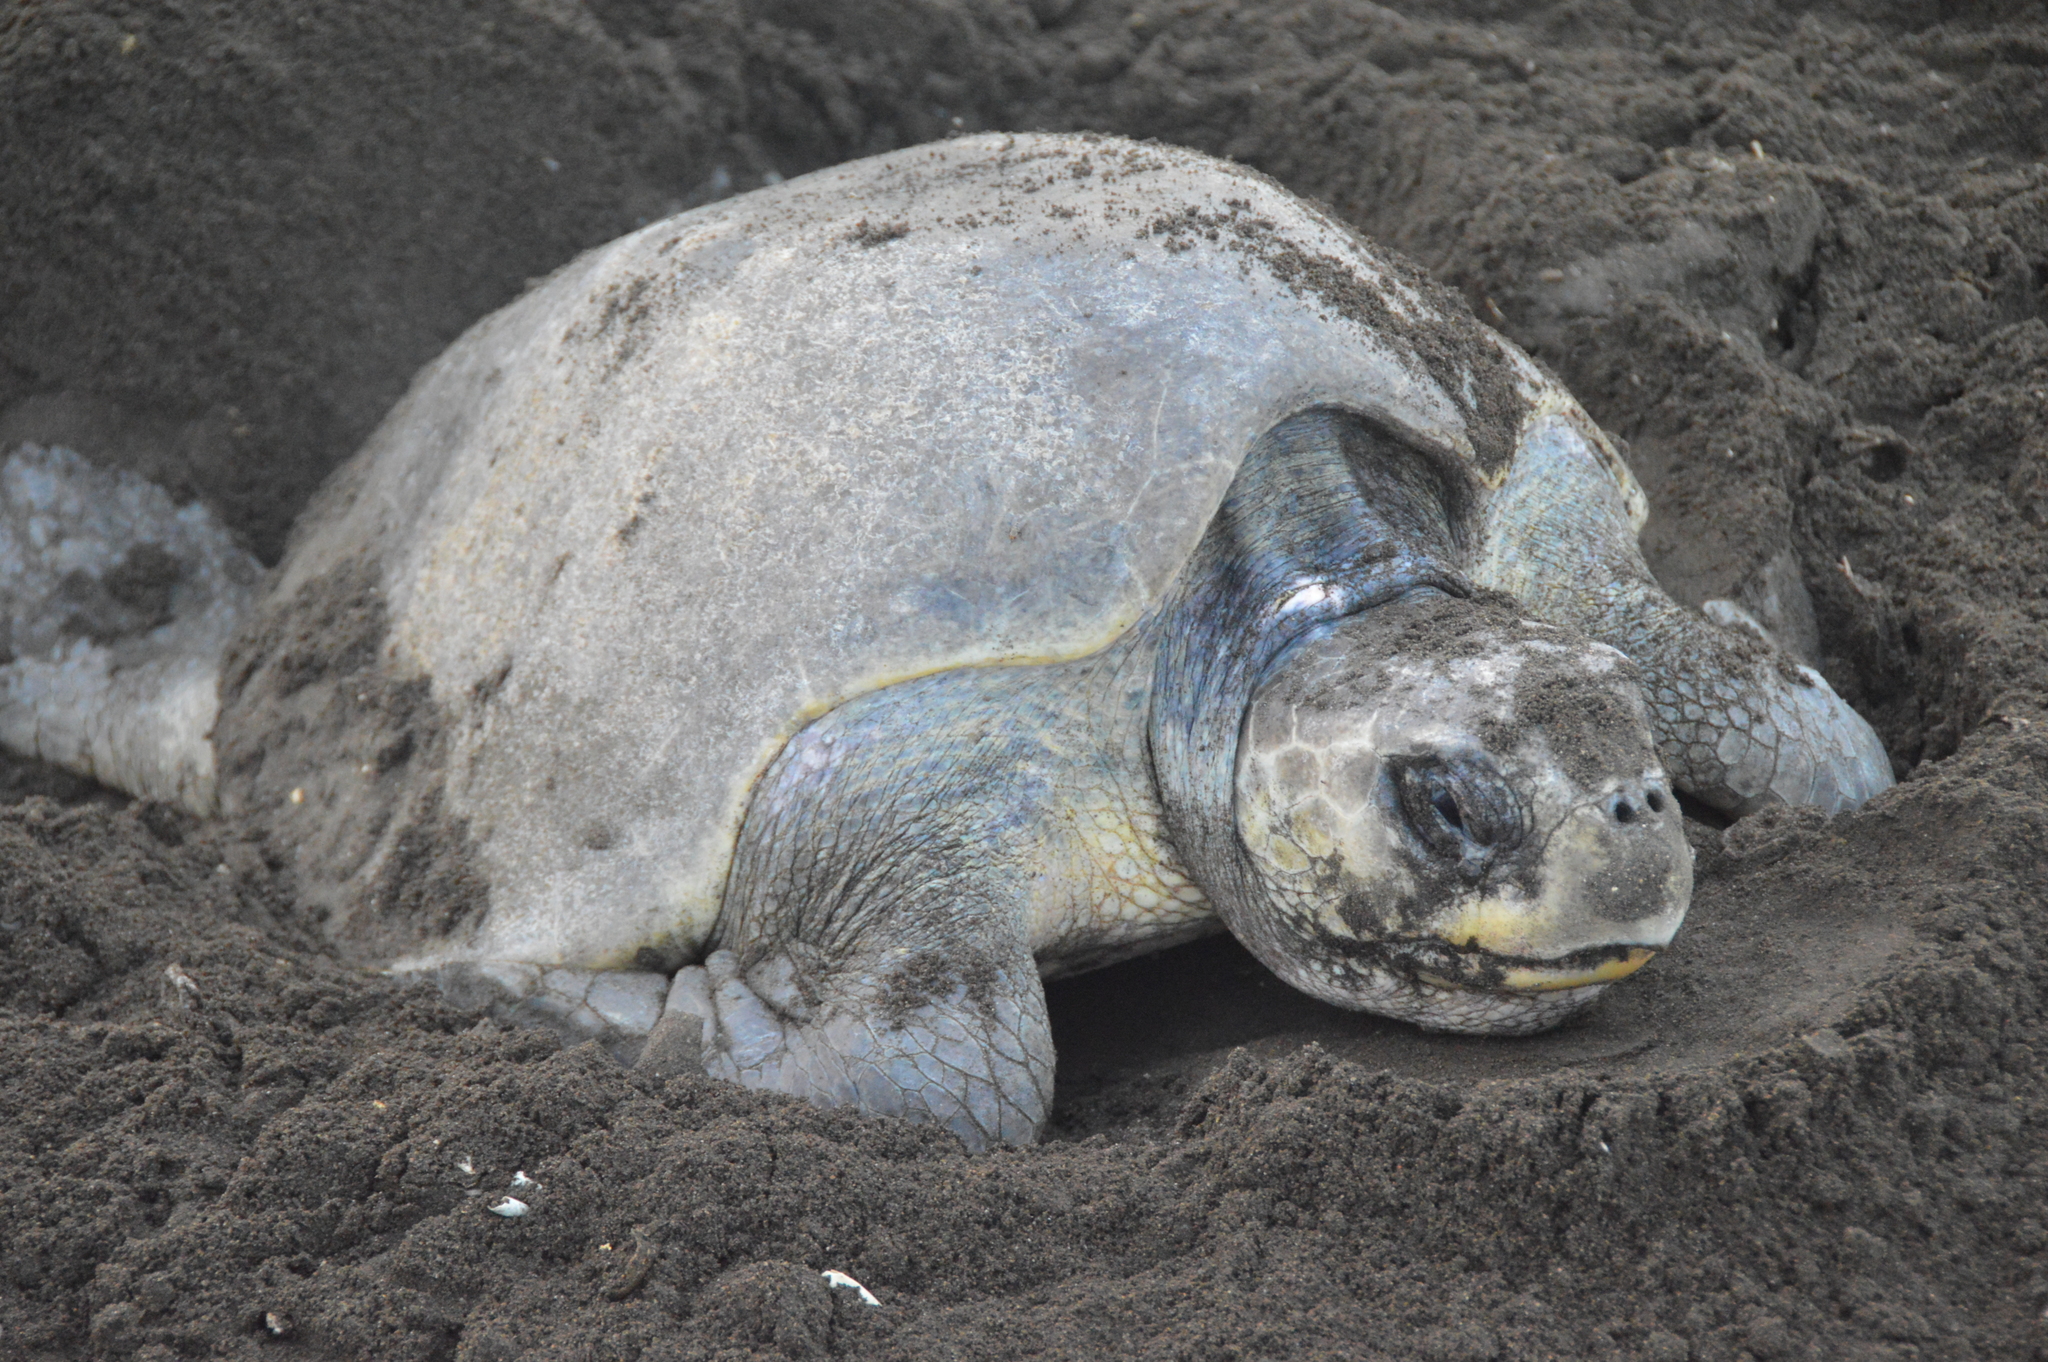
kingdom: Animalia
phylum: Chordata
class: Testudines
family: Cheloniidae
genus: Lepidochelys
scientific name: Lepidochelys olivacea
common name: Olive ridley
